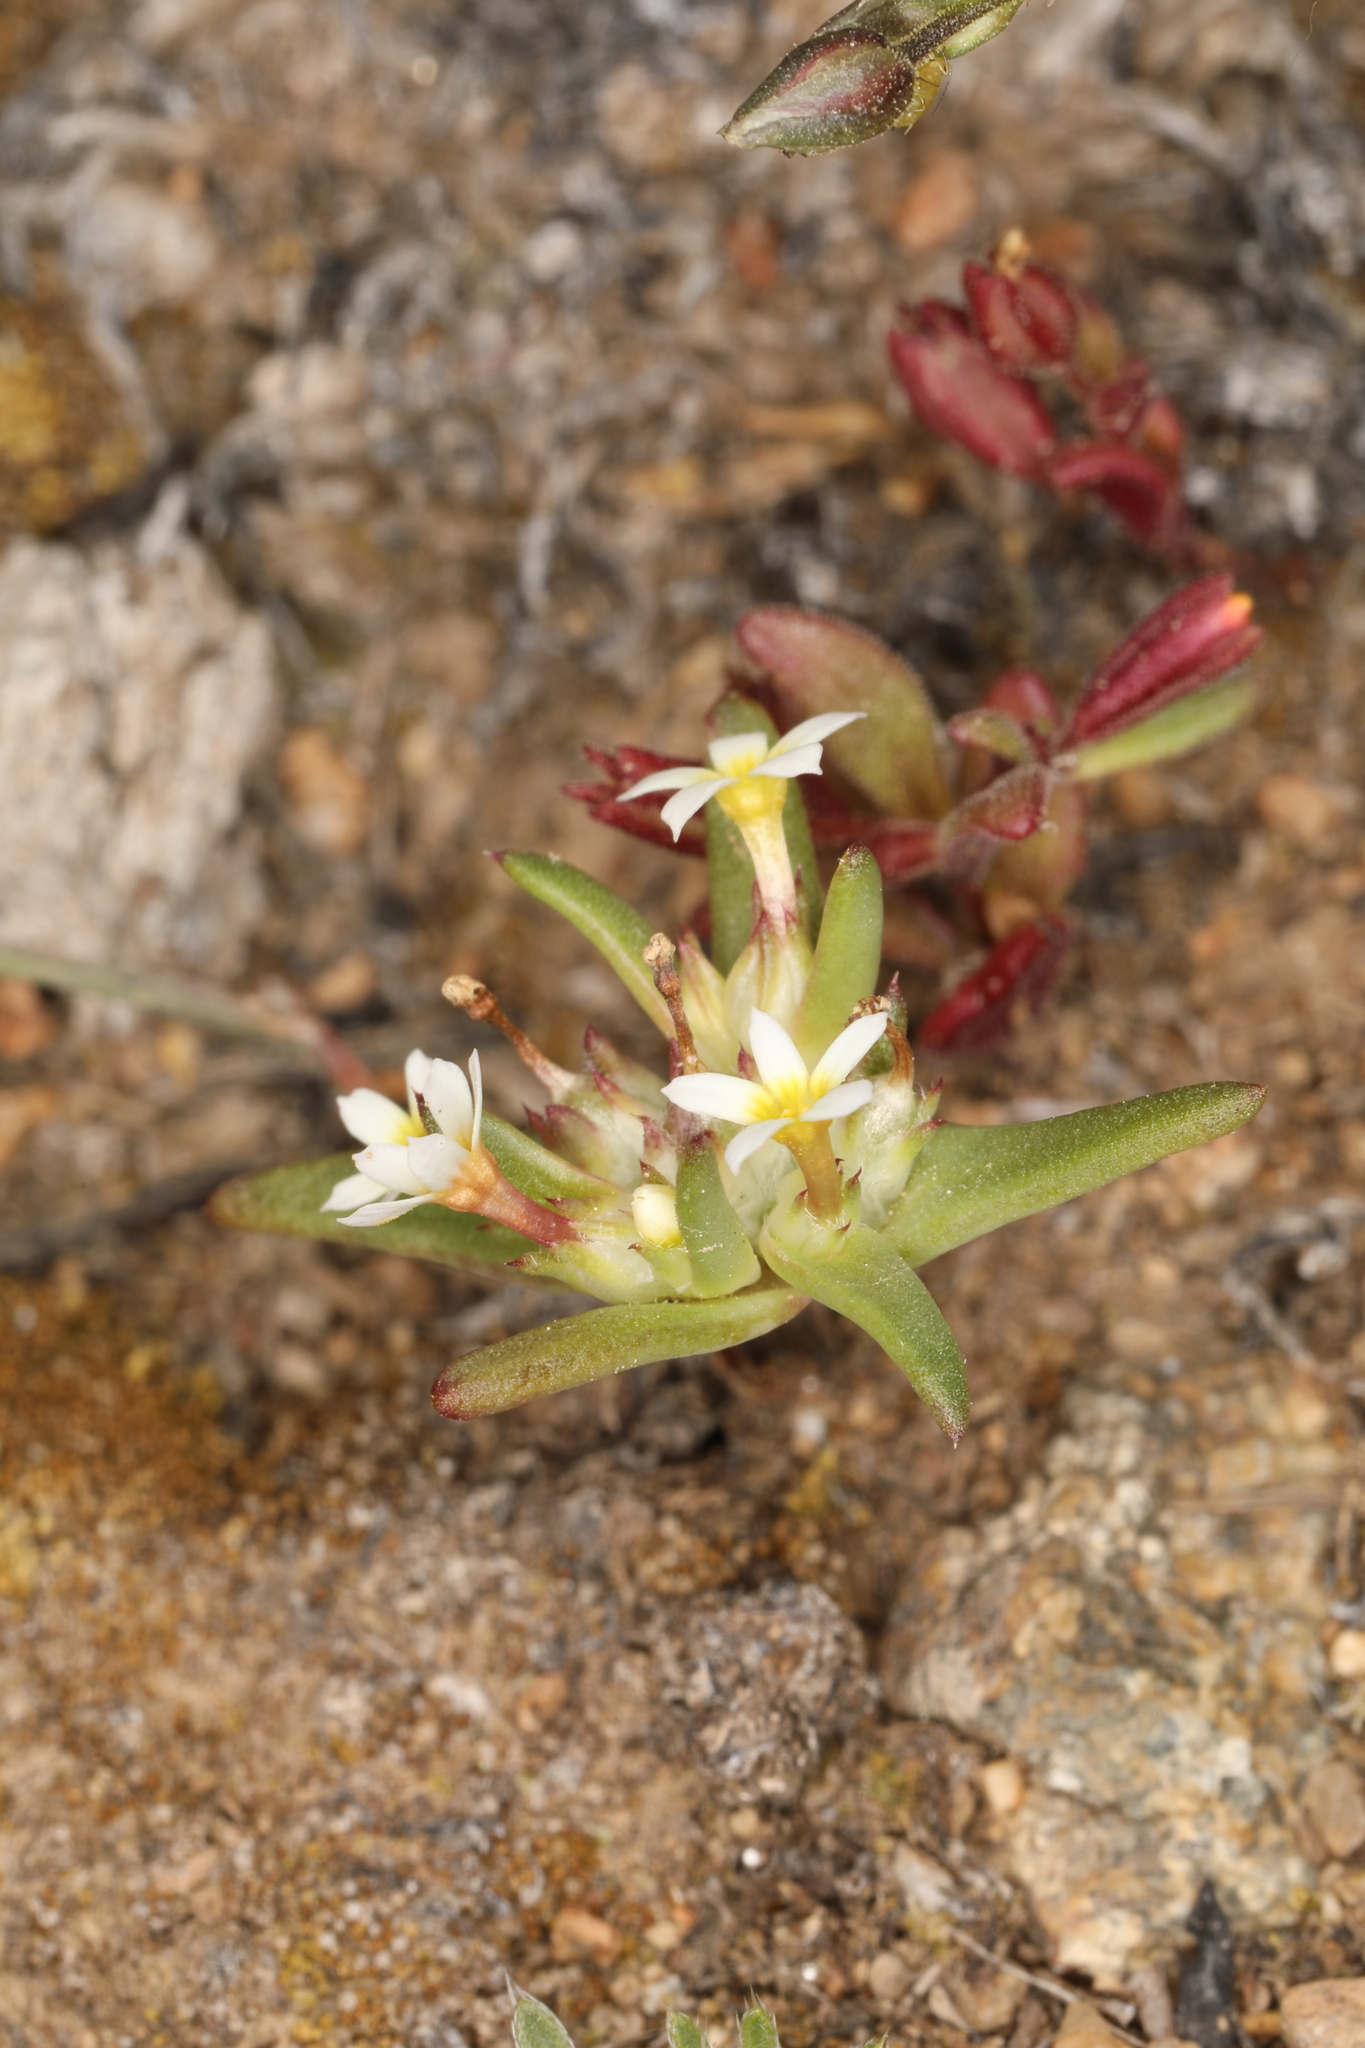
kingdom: Plantae
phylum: Tracheophyta
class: Magnoliopsida
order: Ericales
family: Polemoniaceae
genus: Gymnosteris
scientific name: Gymnosteris parvula
